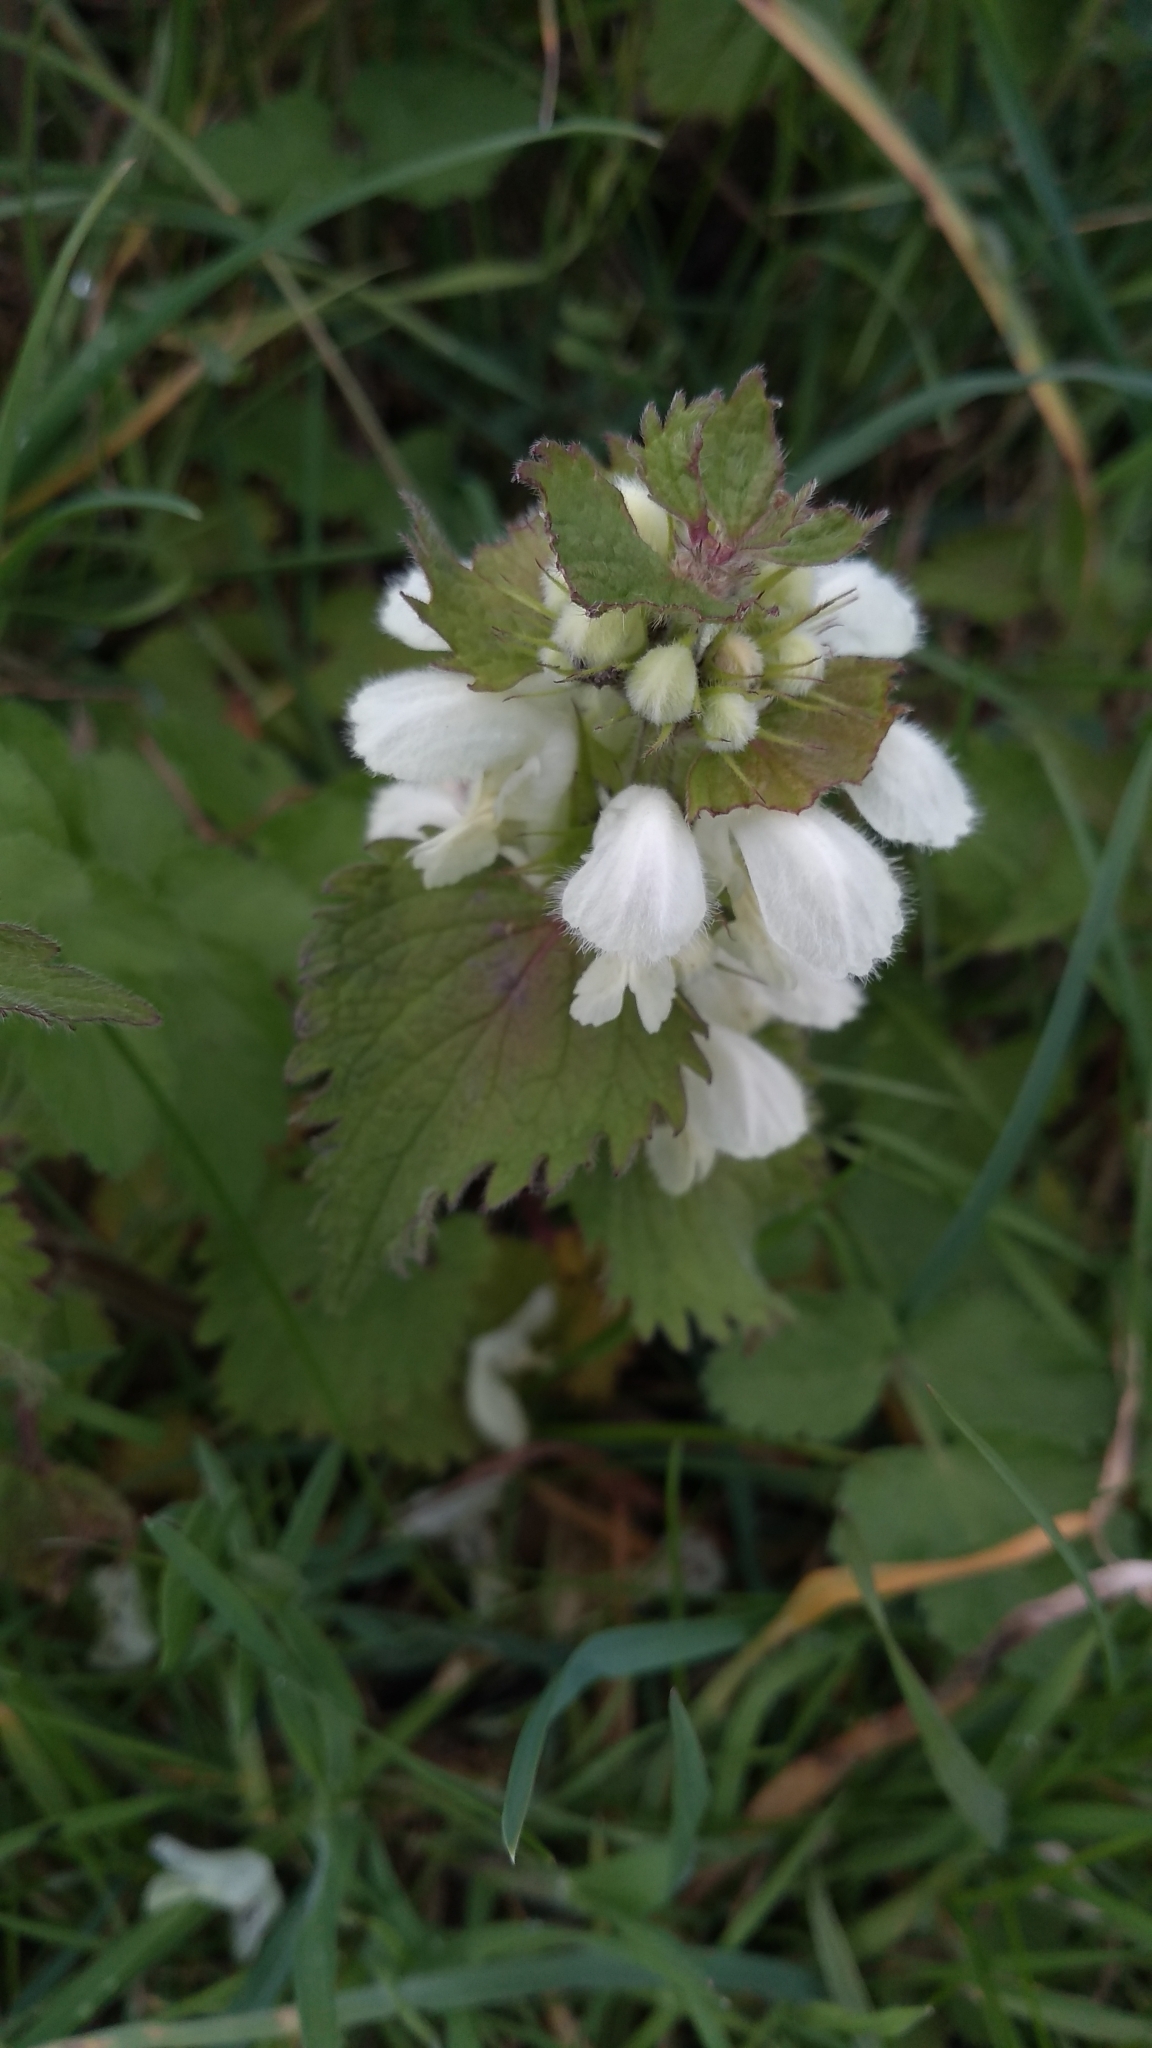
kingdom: Plantae
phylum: Tracheophyta
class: Magnoliopsida
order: Lamiales
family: Lamiaceae
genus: Lamium
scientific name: Lamium album
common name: White dead-nettle
